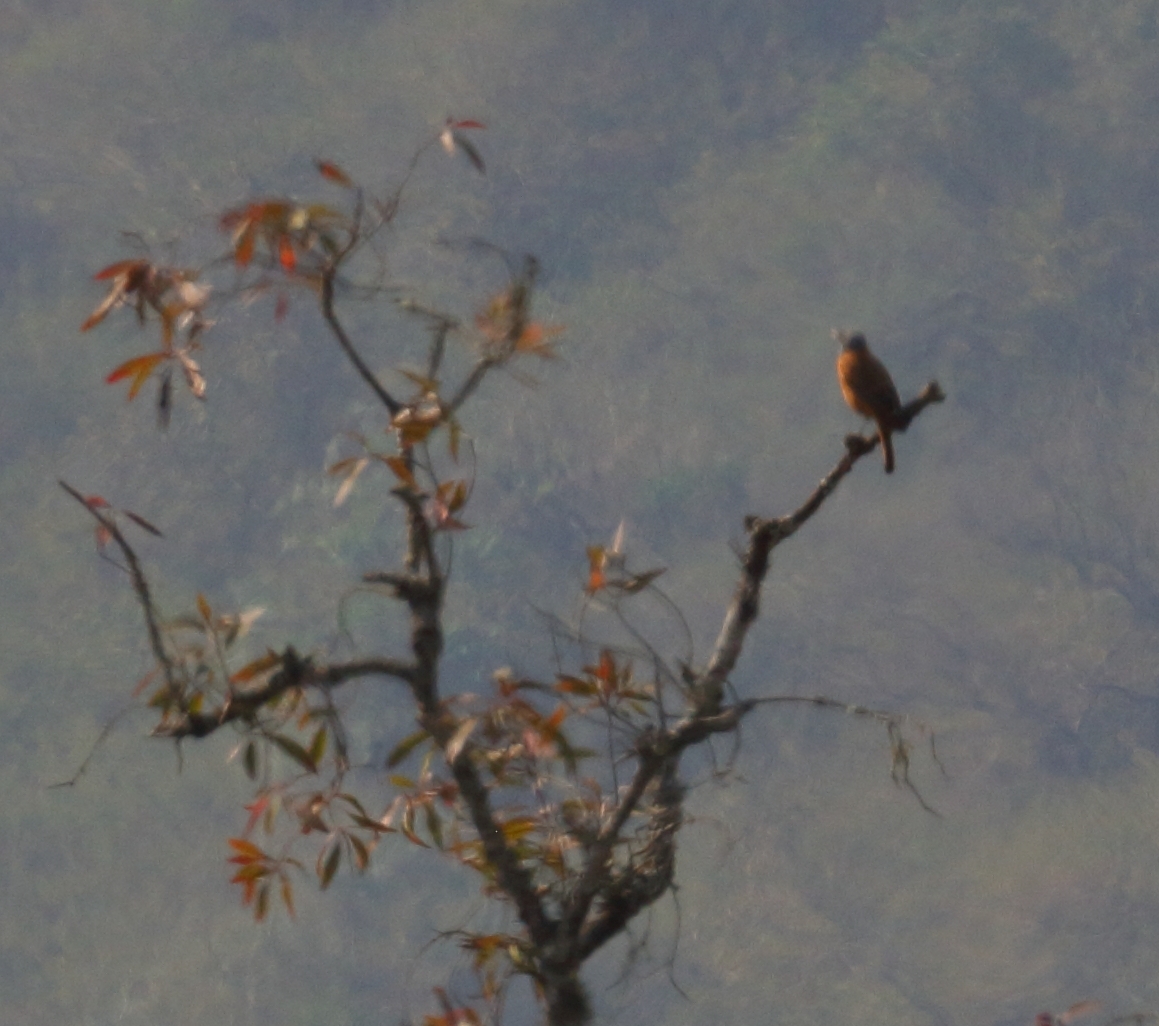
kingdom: Animalia
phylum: Chordata
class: Aves
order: Passeriformes
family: Muscicapidae
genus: Monticola
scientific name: Monticola rupestris
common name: Cape rock thrush
